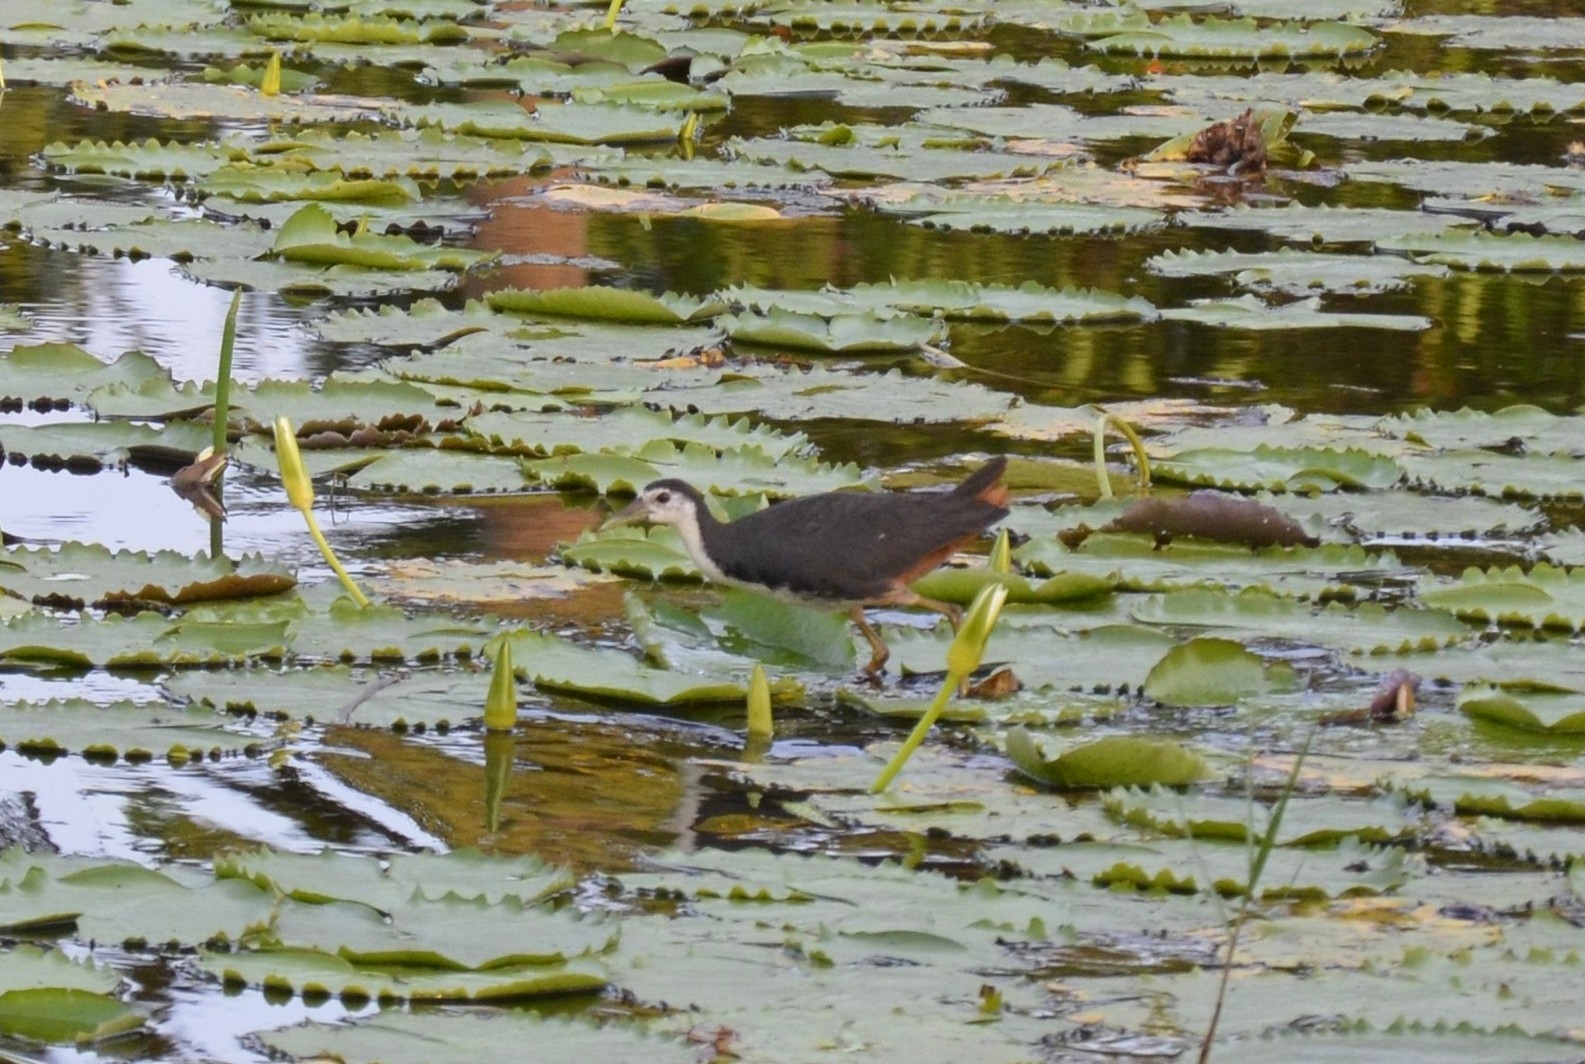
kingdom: Animalia
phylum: Chordata
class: Aves
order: Gruiformes
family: Rallidae
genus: Amaurornis
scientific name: Amaurornis phoenicurus
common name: White-breasted waterhen
